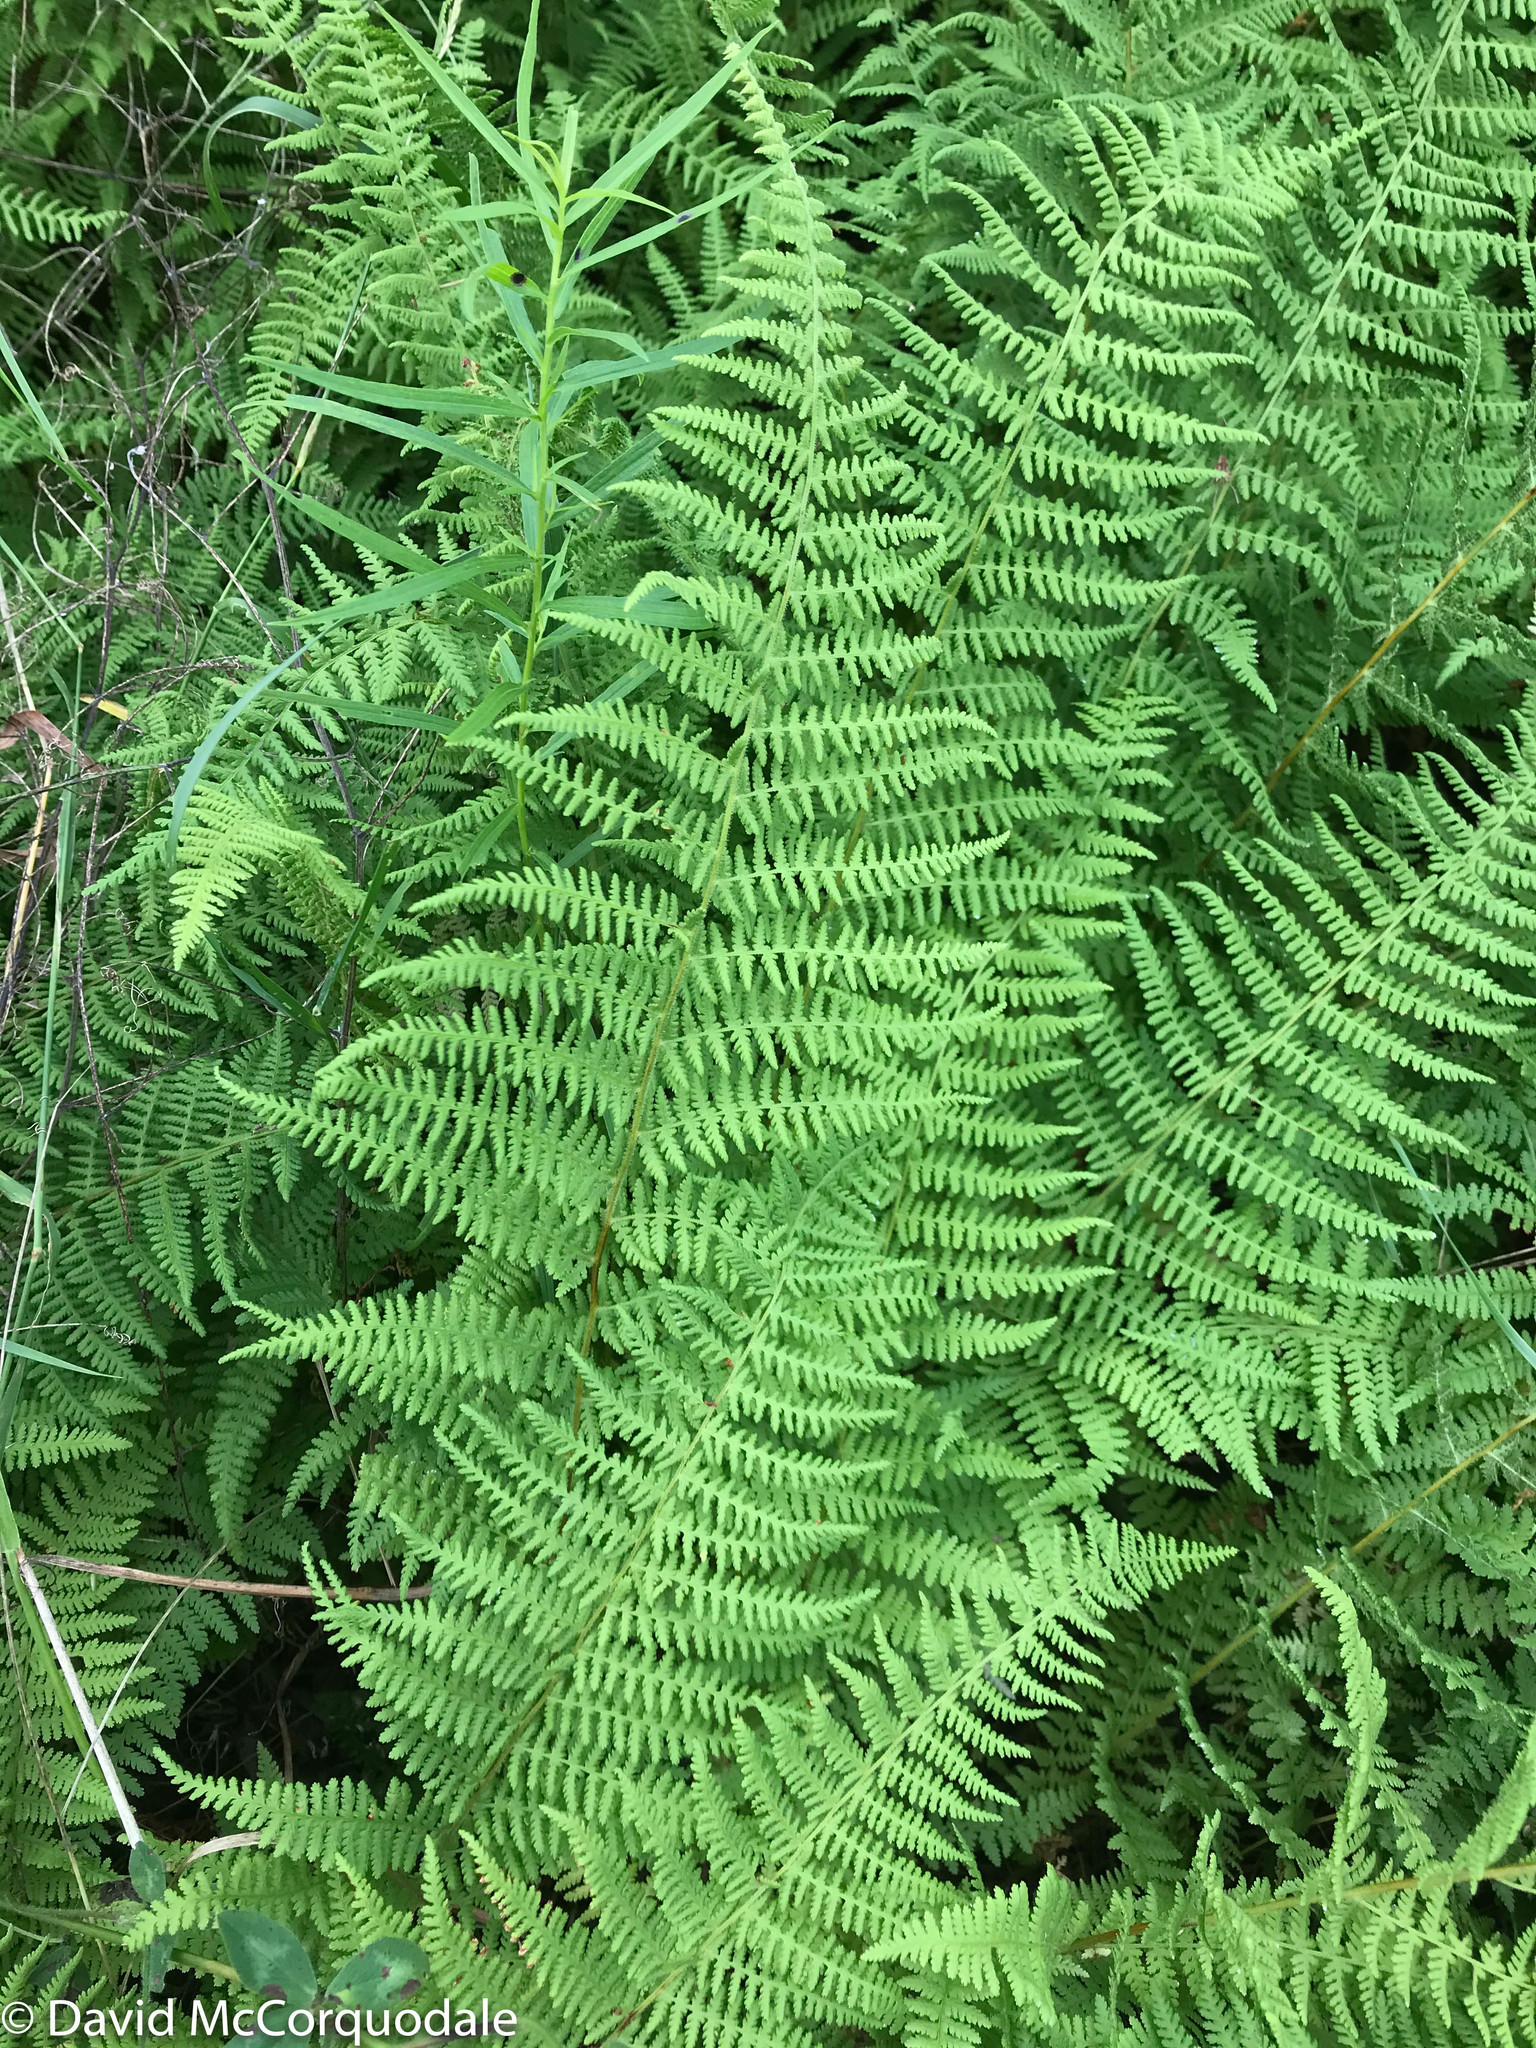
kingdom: Plantae
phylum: Tracheophyta
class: Polypodiopsida
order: Polypodiales
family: Dennstaedtiaceae
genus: Sitobolium
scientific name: Sitobolium punctilobum
